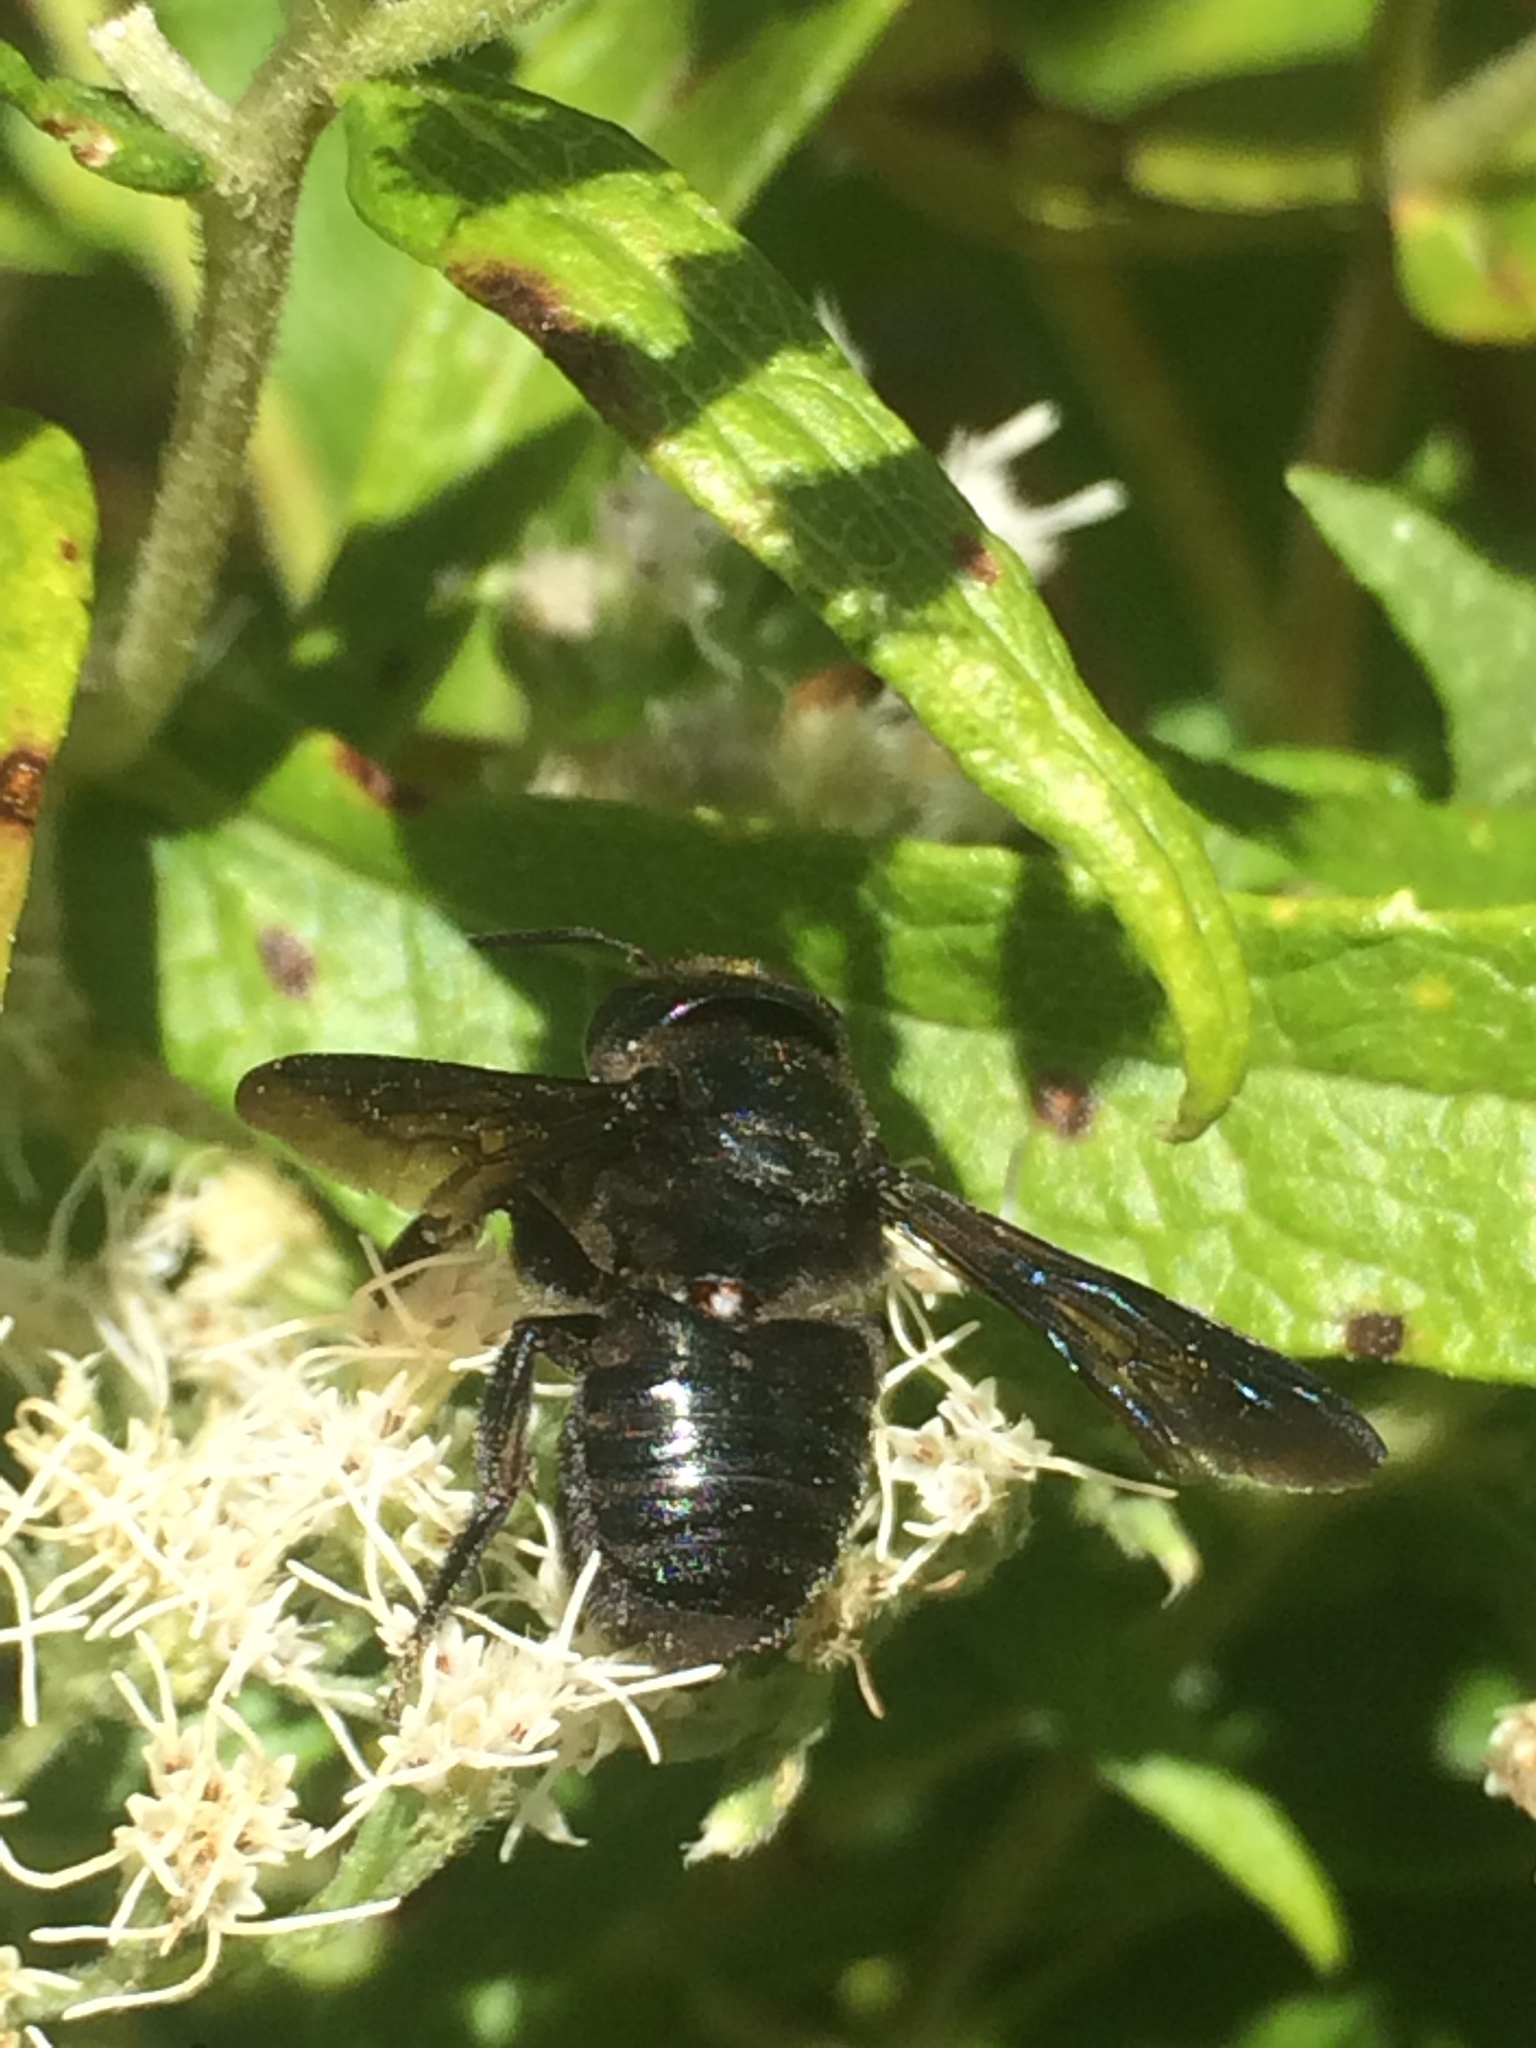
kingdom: Animalia
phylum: Arthropoda
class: Insecta
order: Hymenoptera
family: Megachilidae
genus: Megachile
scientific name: Megachile xylocopoides
